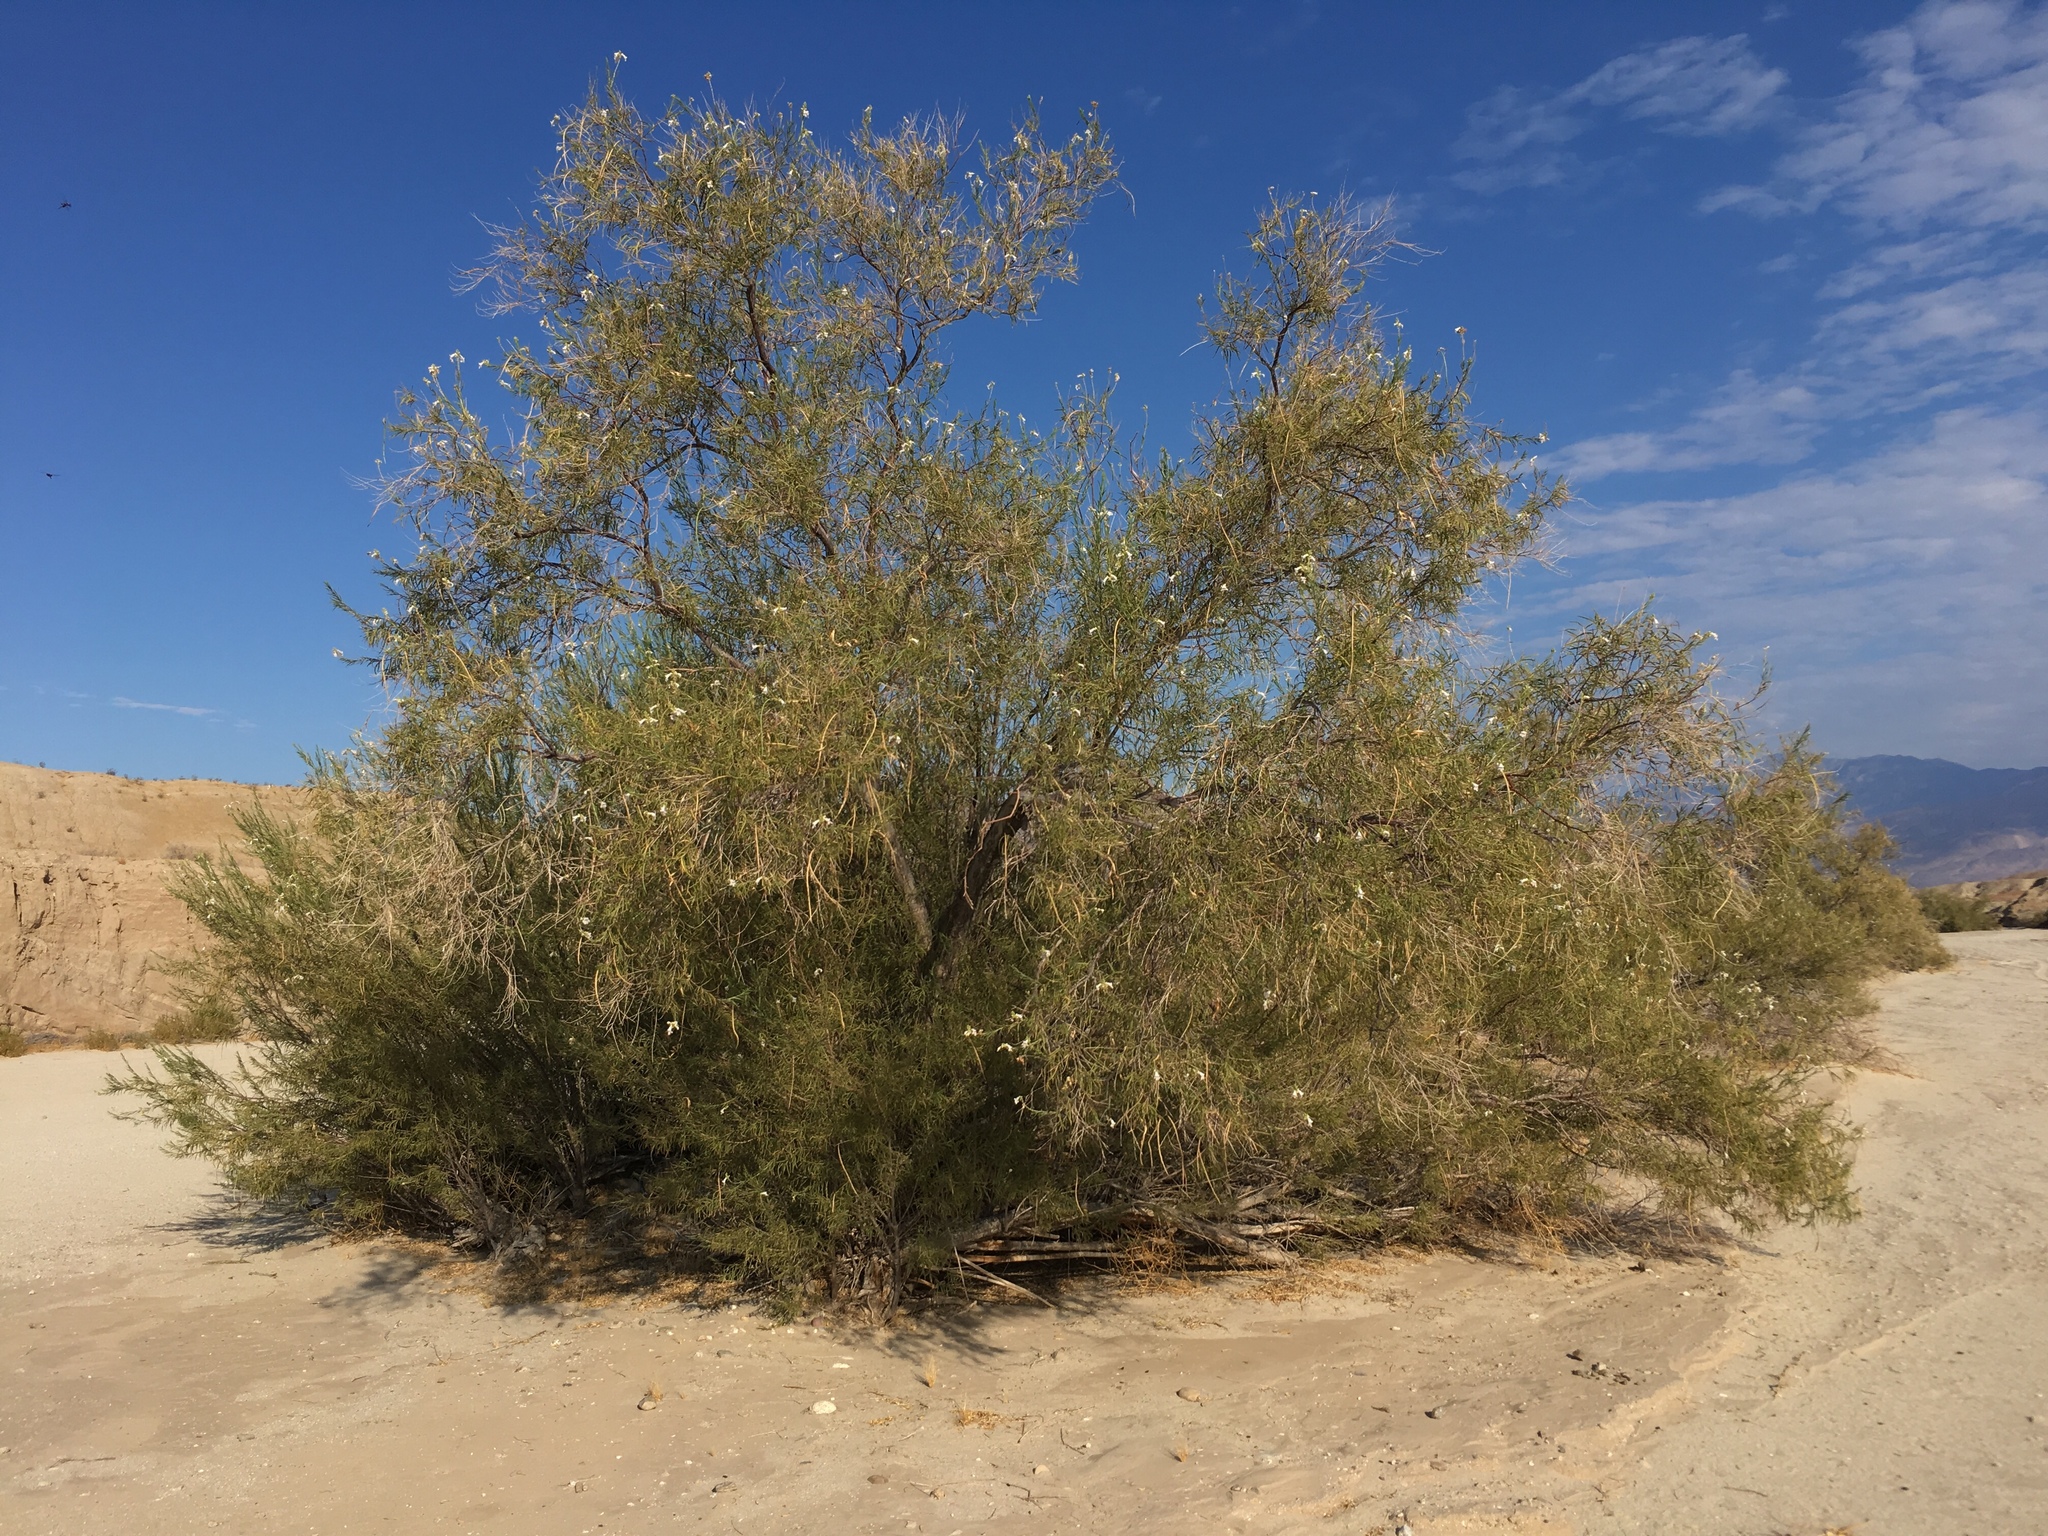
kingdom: Plantae
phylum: Tracheophyta
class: Magnoliopsida
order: Lamiales
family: Bignoniaceae
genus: Chilopsis
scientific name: Chilopsis linearis
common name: Desert-willow
